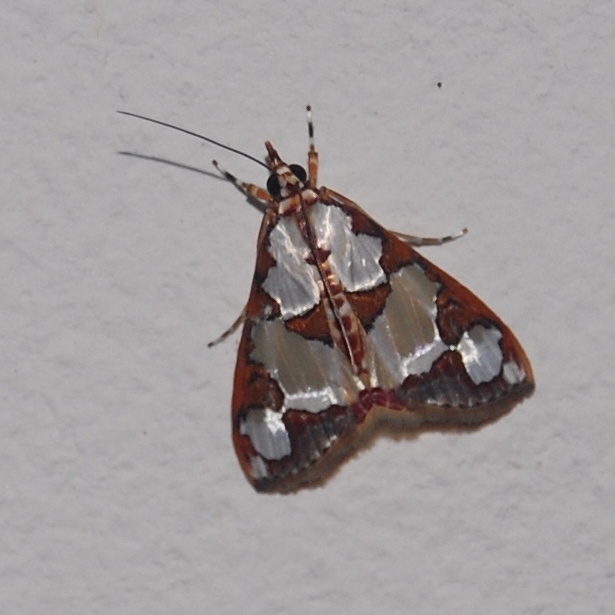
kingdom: Animalia
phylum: Arthropoda
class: Insecta
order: Lepidoptera
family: Crambidae
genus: Argyrarcha
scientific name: Argyrarcha margarita
